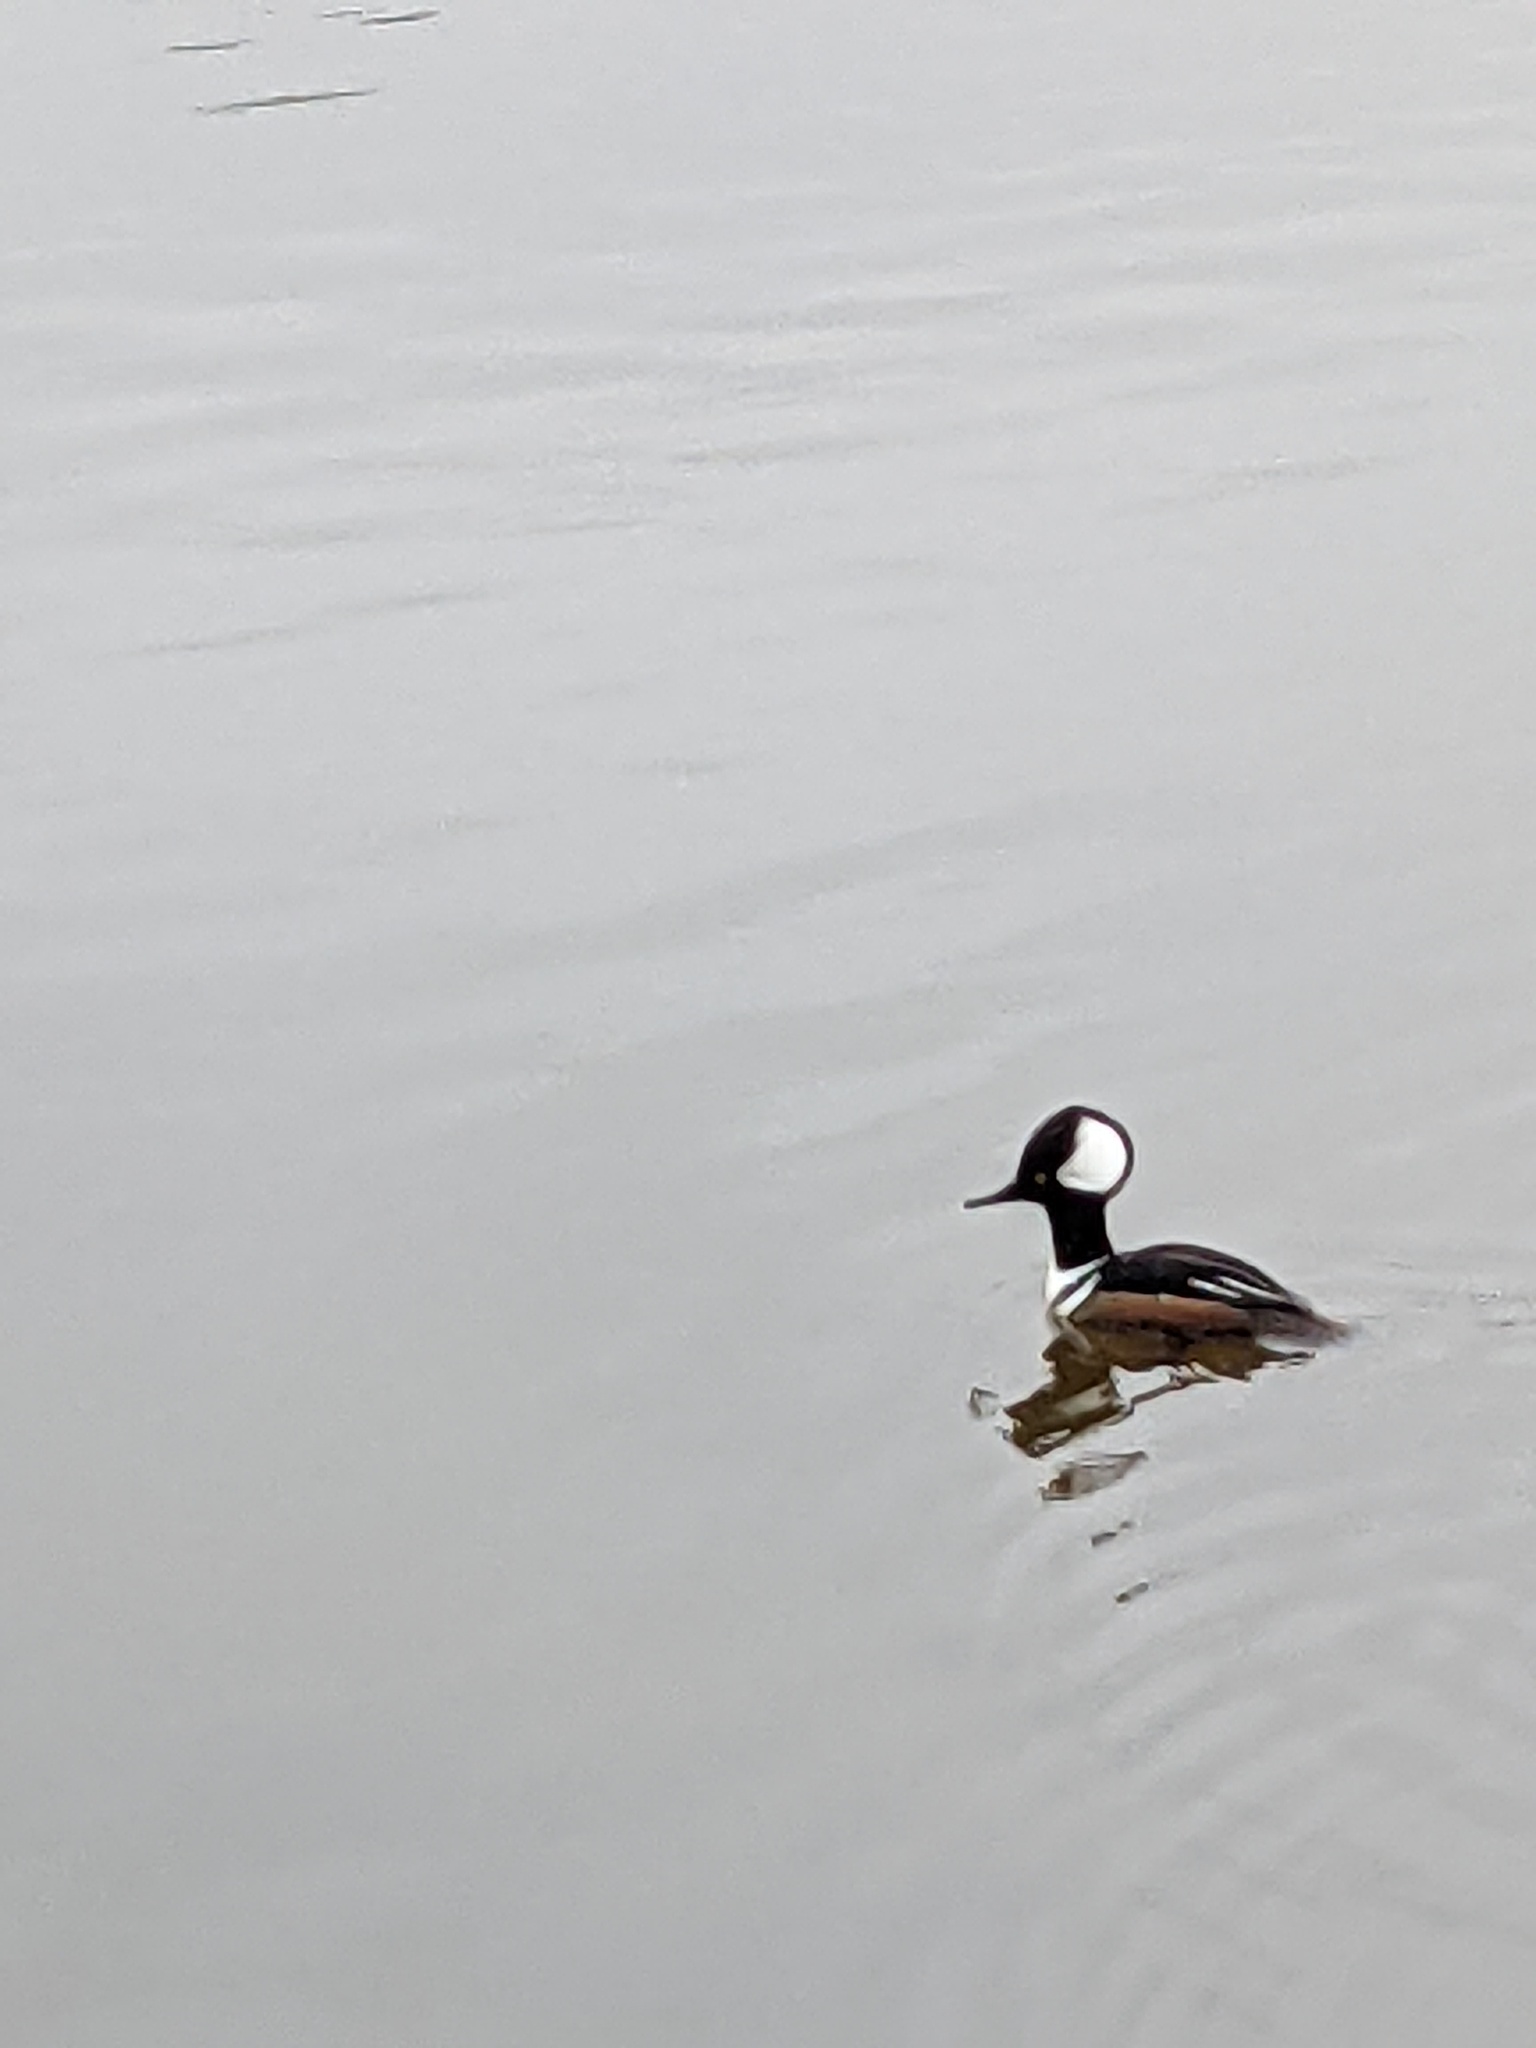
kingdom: Animalia
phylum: Chordata
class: Aves
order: Anseriformes
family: Anatidae
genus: Lophodytes
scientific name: Lophodytes cucullatus
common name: Hooded merganser
